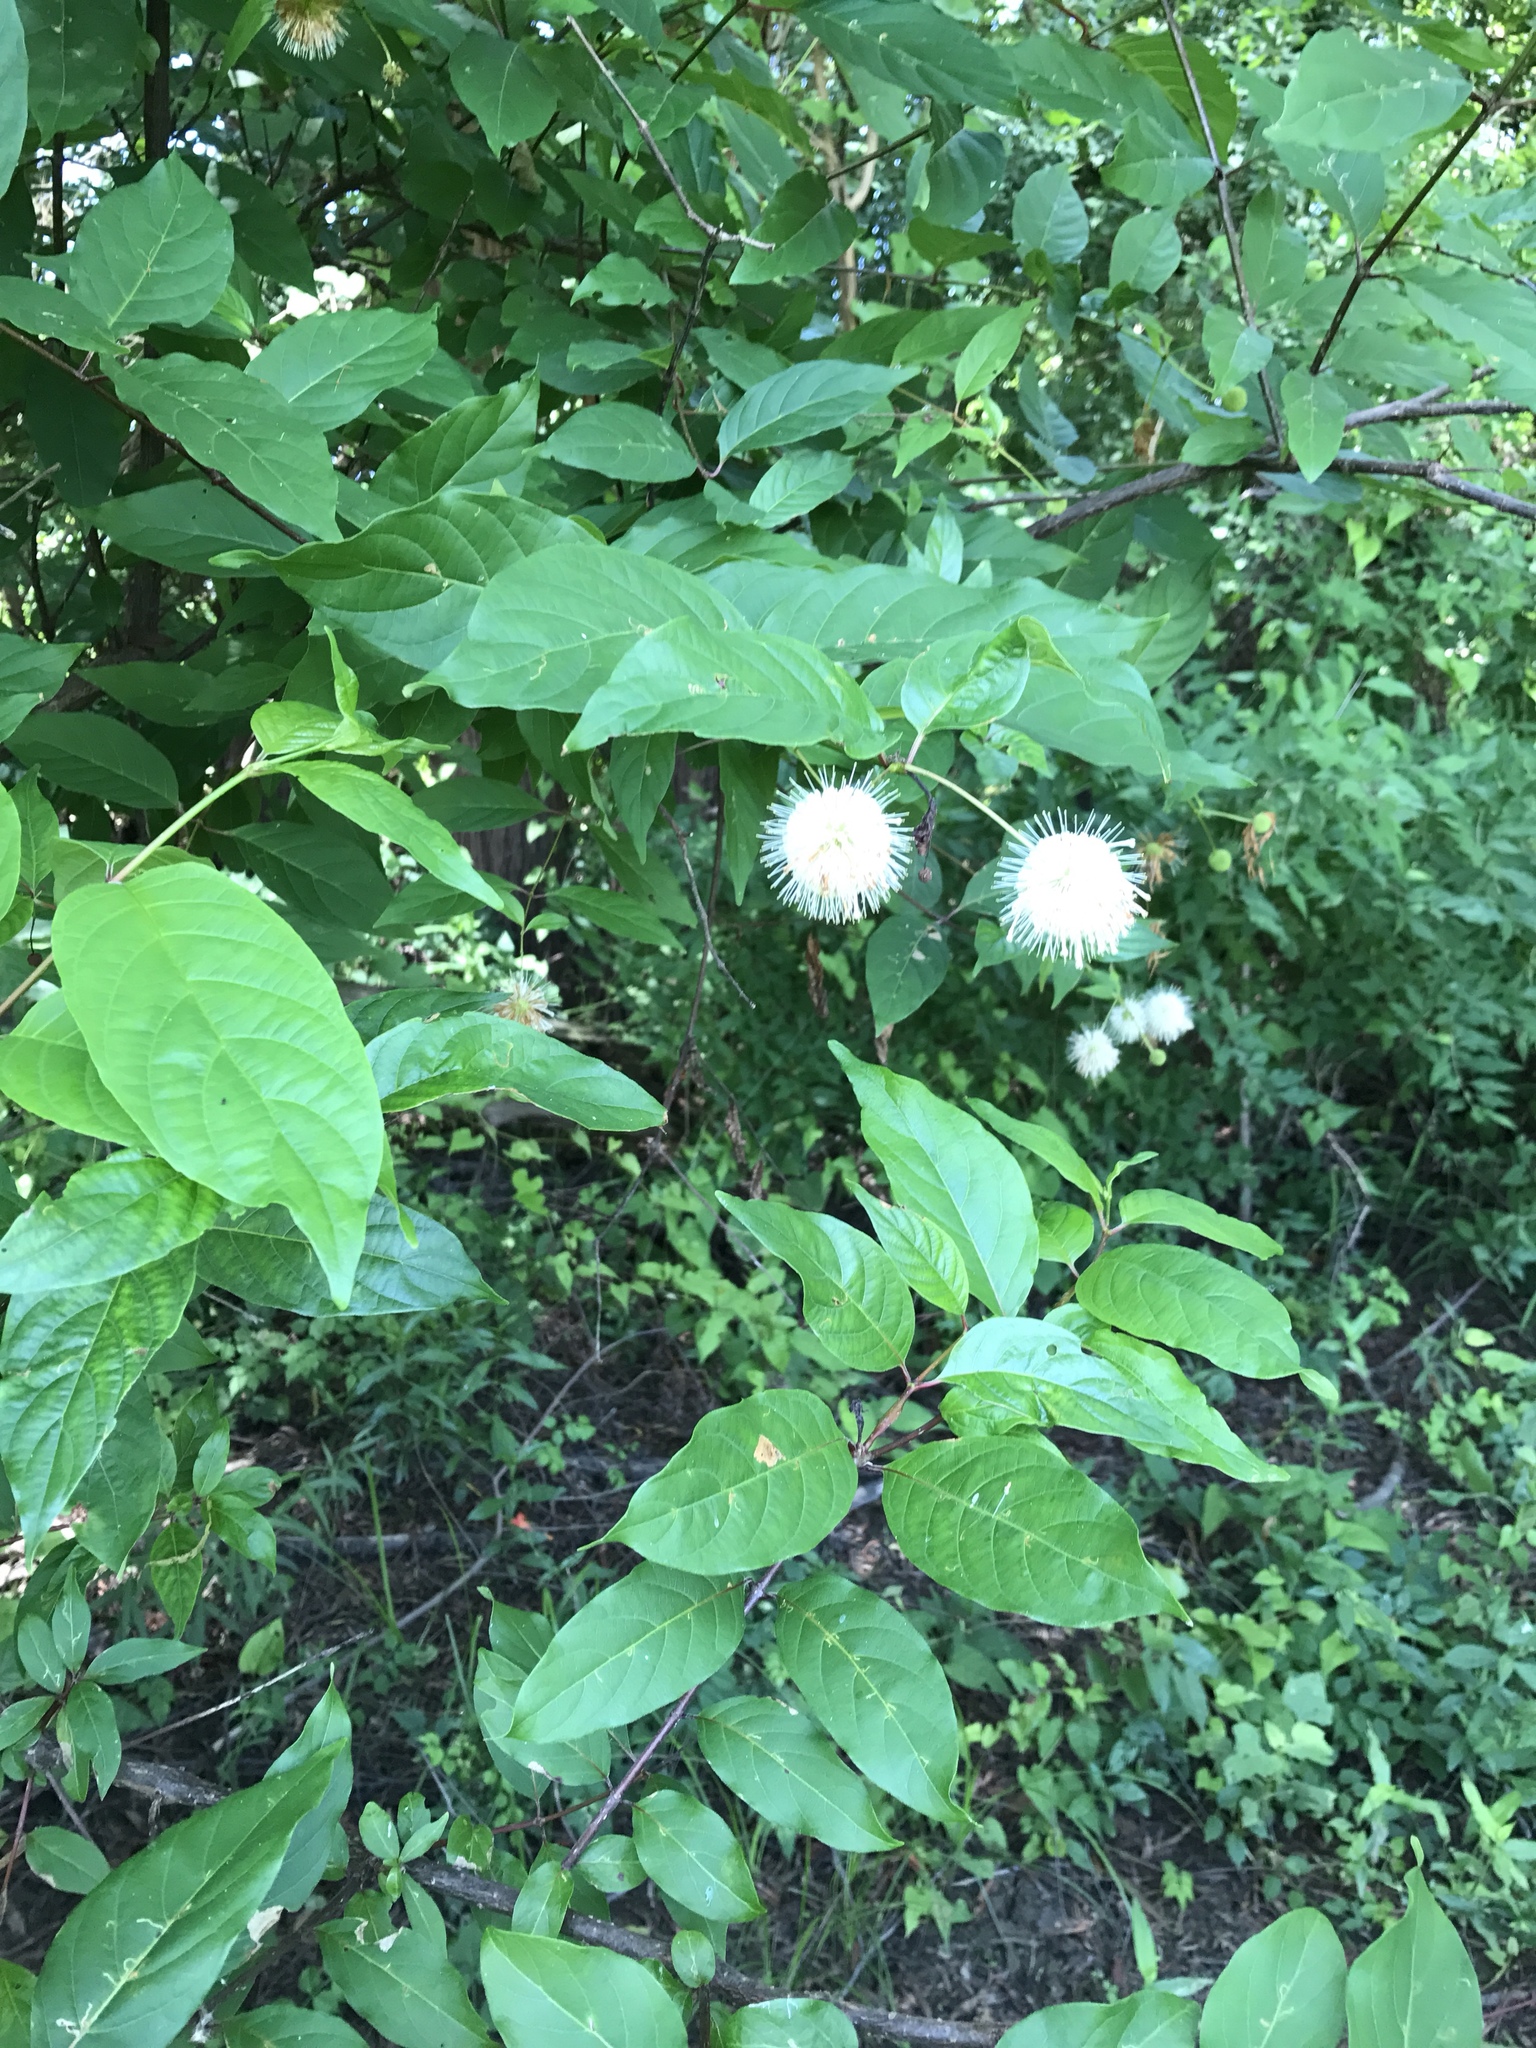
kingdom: Plantae
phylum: Tracheophyta
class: Magnoliopsida
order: Gentianales
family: Rubiaceae
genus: Cephalanthus
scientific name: Cephalanthus occidentalis
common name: Button-willow
